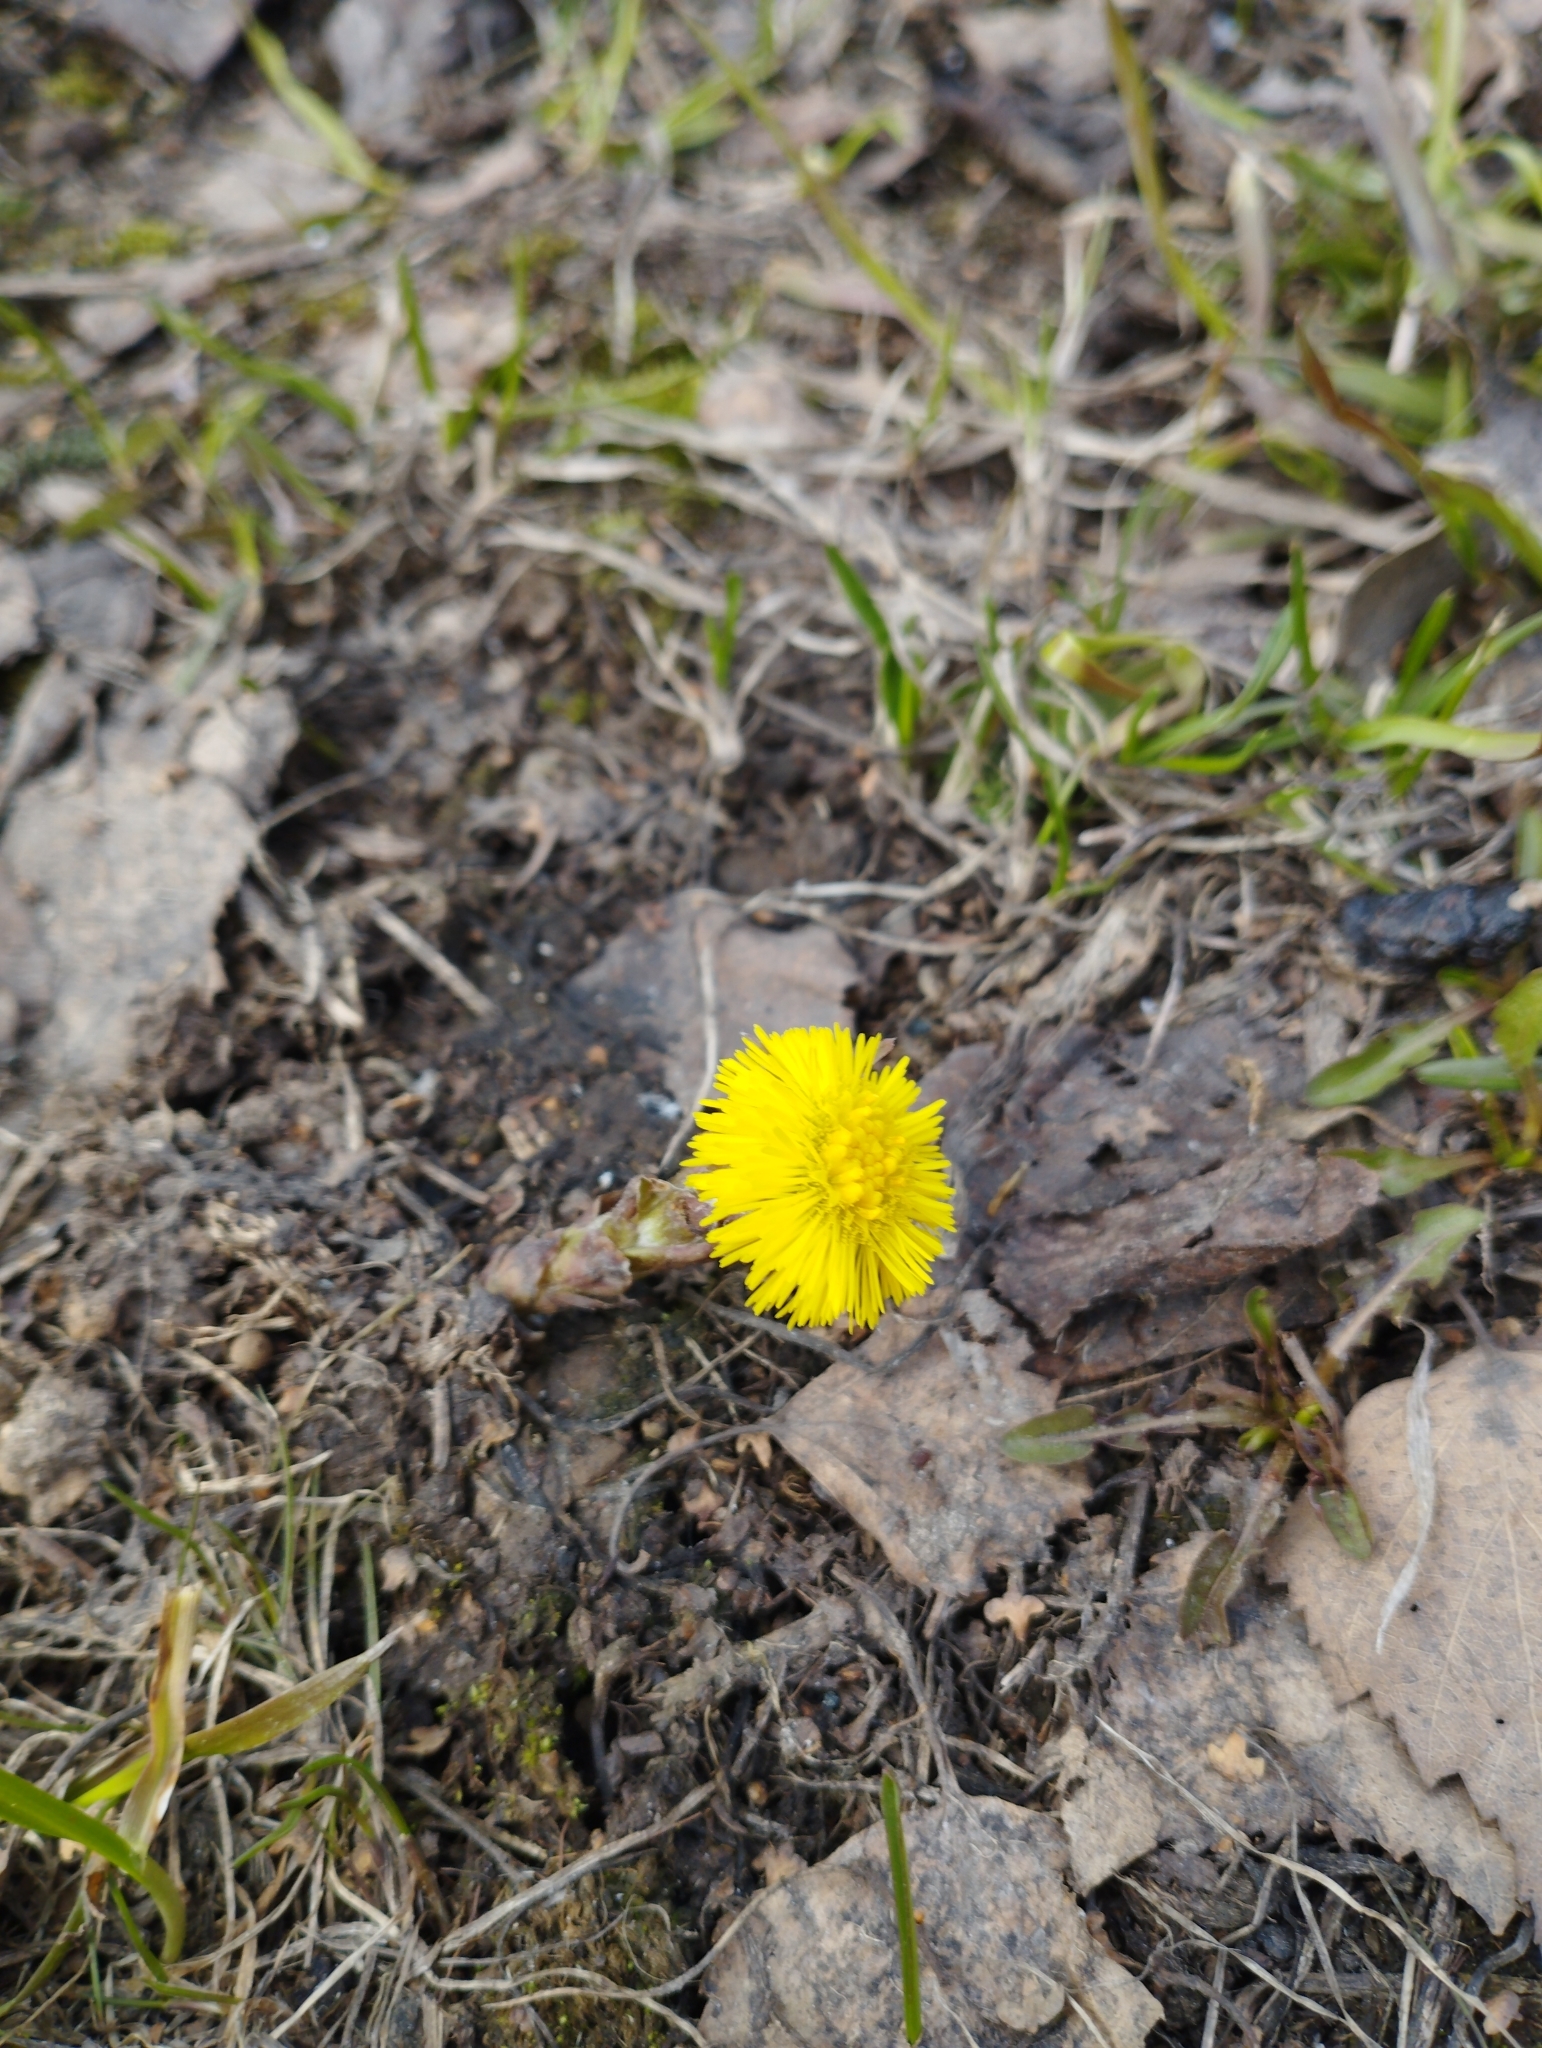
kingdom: Plantae
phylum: Tracheophyta
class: Magnoliopsida
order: Asterales
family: Asteraceae
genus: Tussilago
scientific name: Tussilago farfara
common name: Coltsfoot
